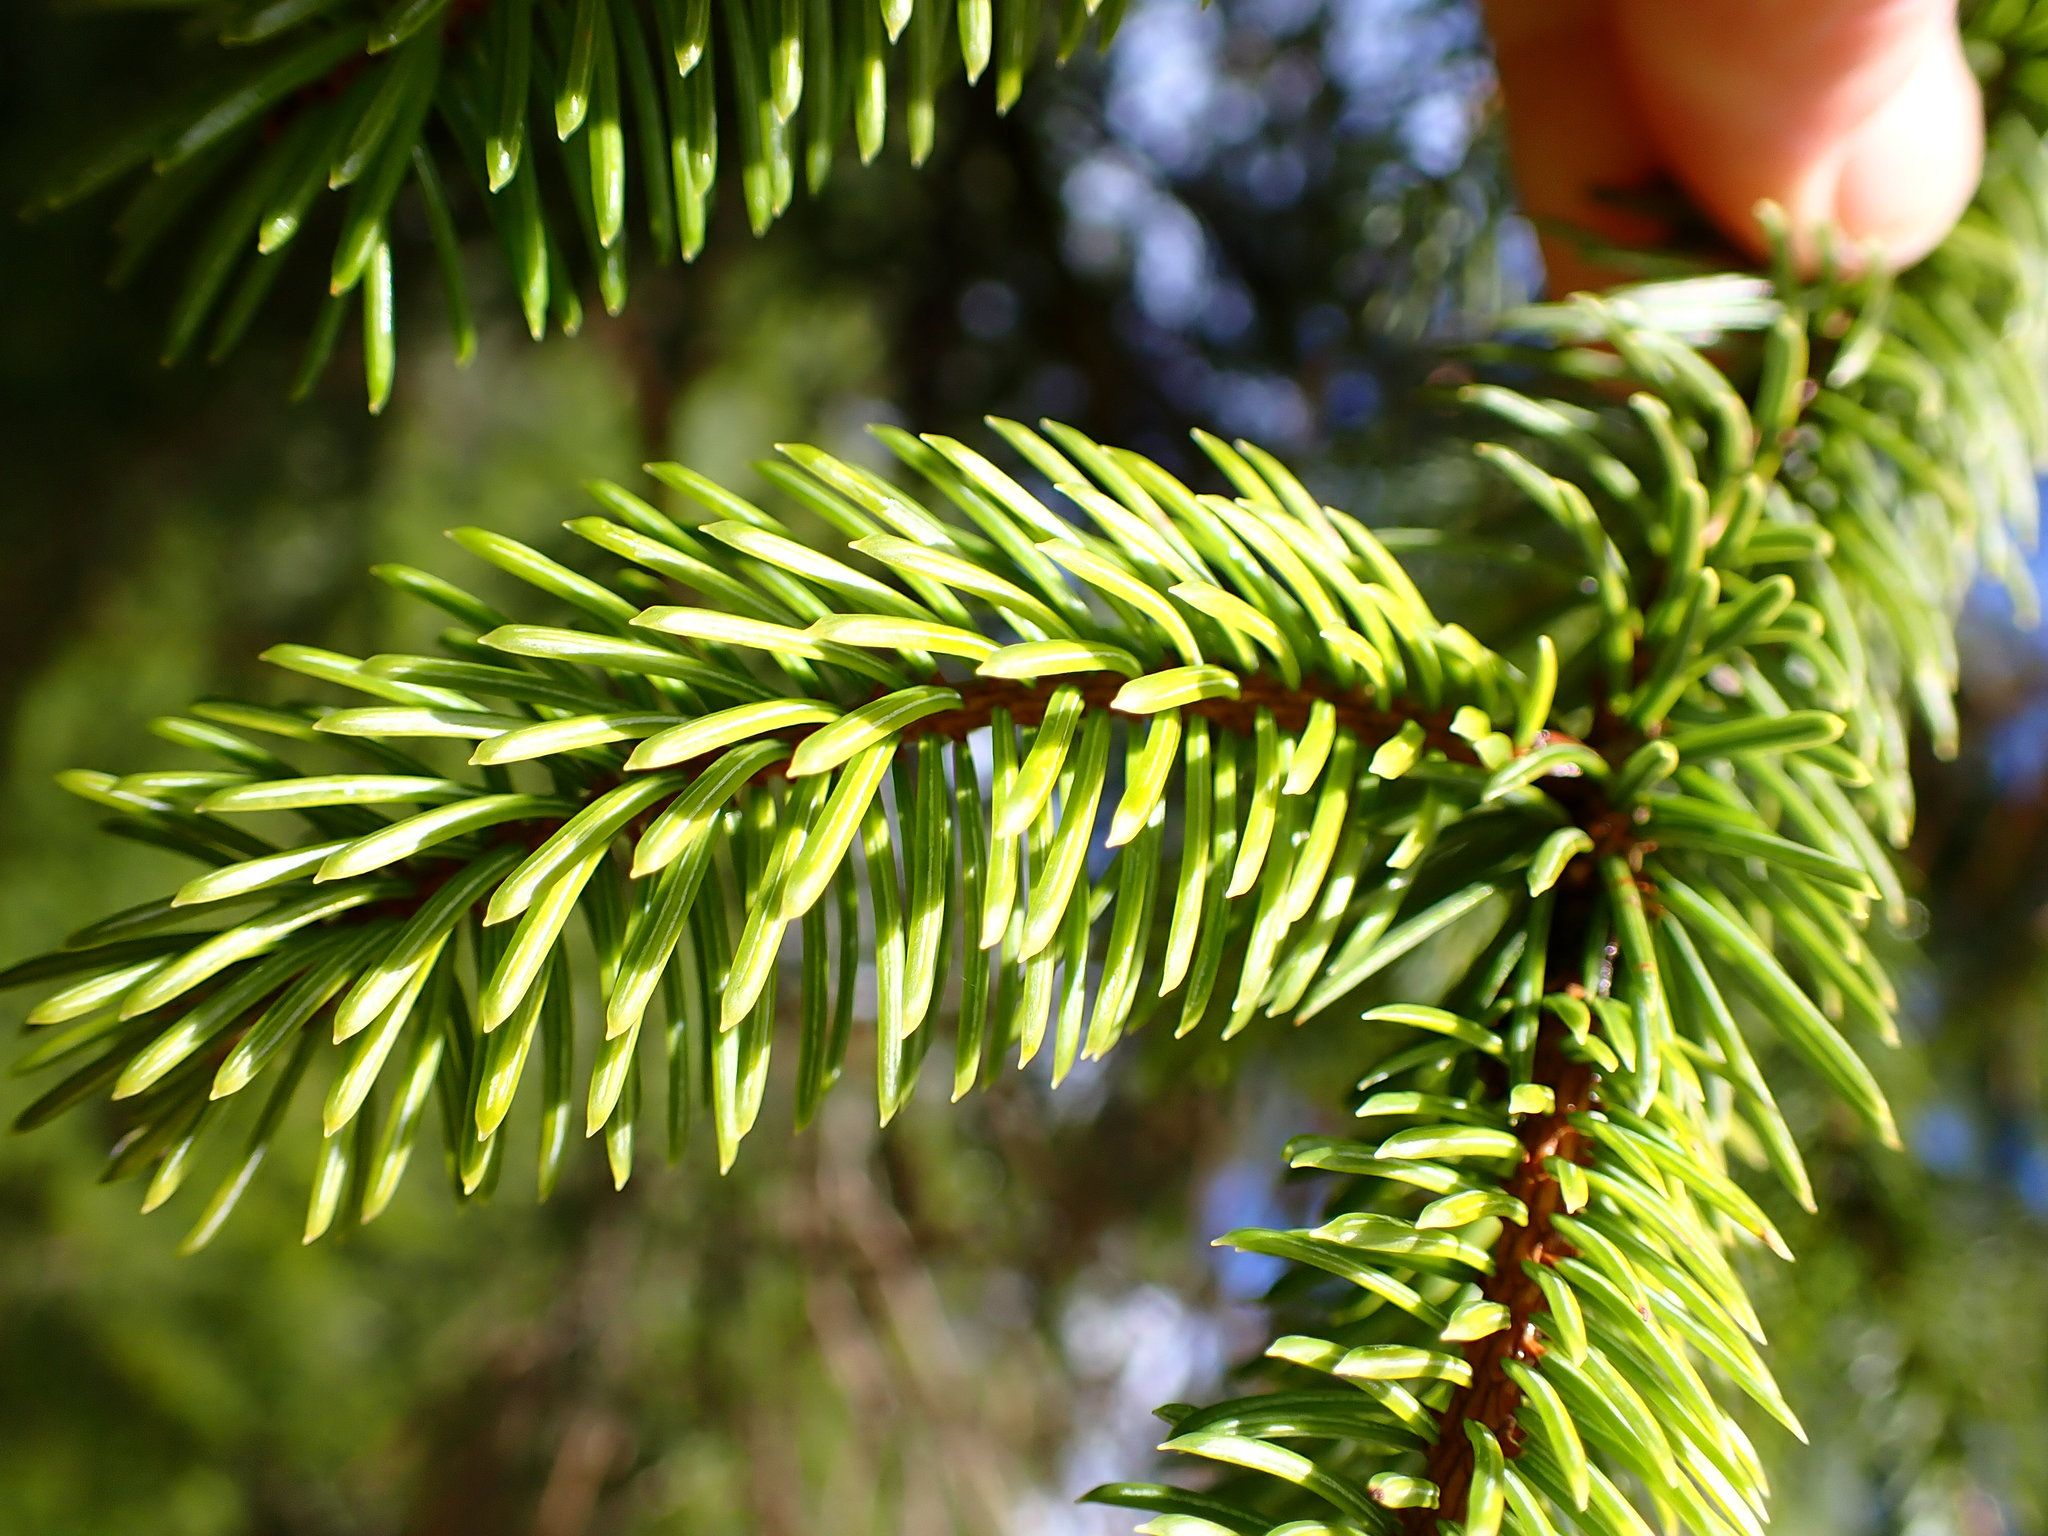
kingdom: Plantae
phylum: Tracheophyta
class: Pinopsida
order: Pinales
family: Pinaceae
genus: Picea
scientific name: Picea sitchensis
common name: Sitka spruce
